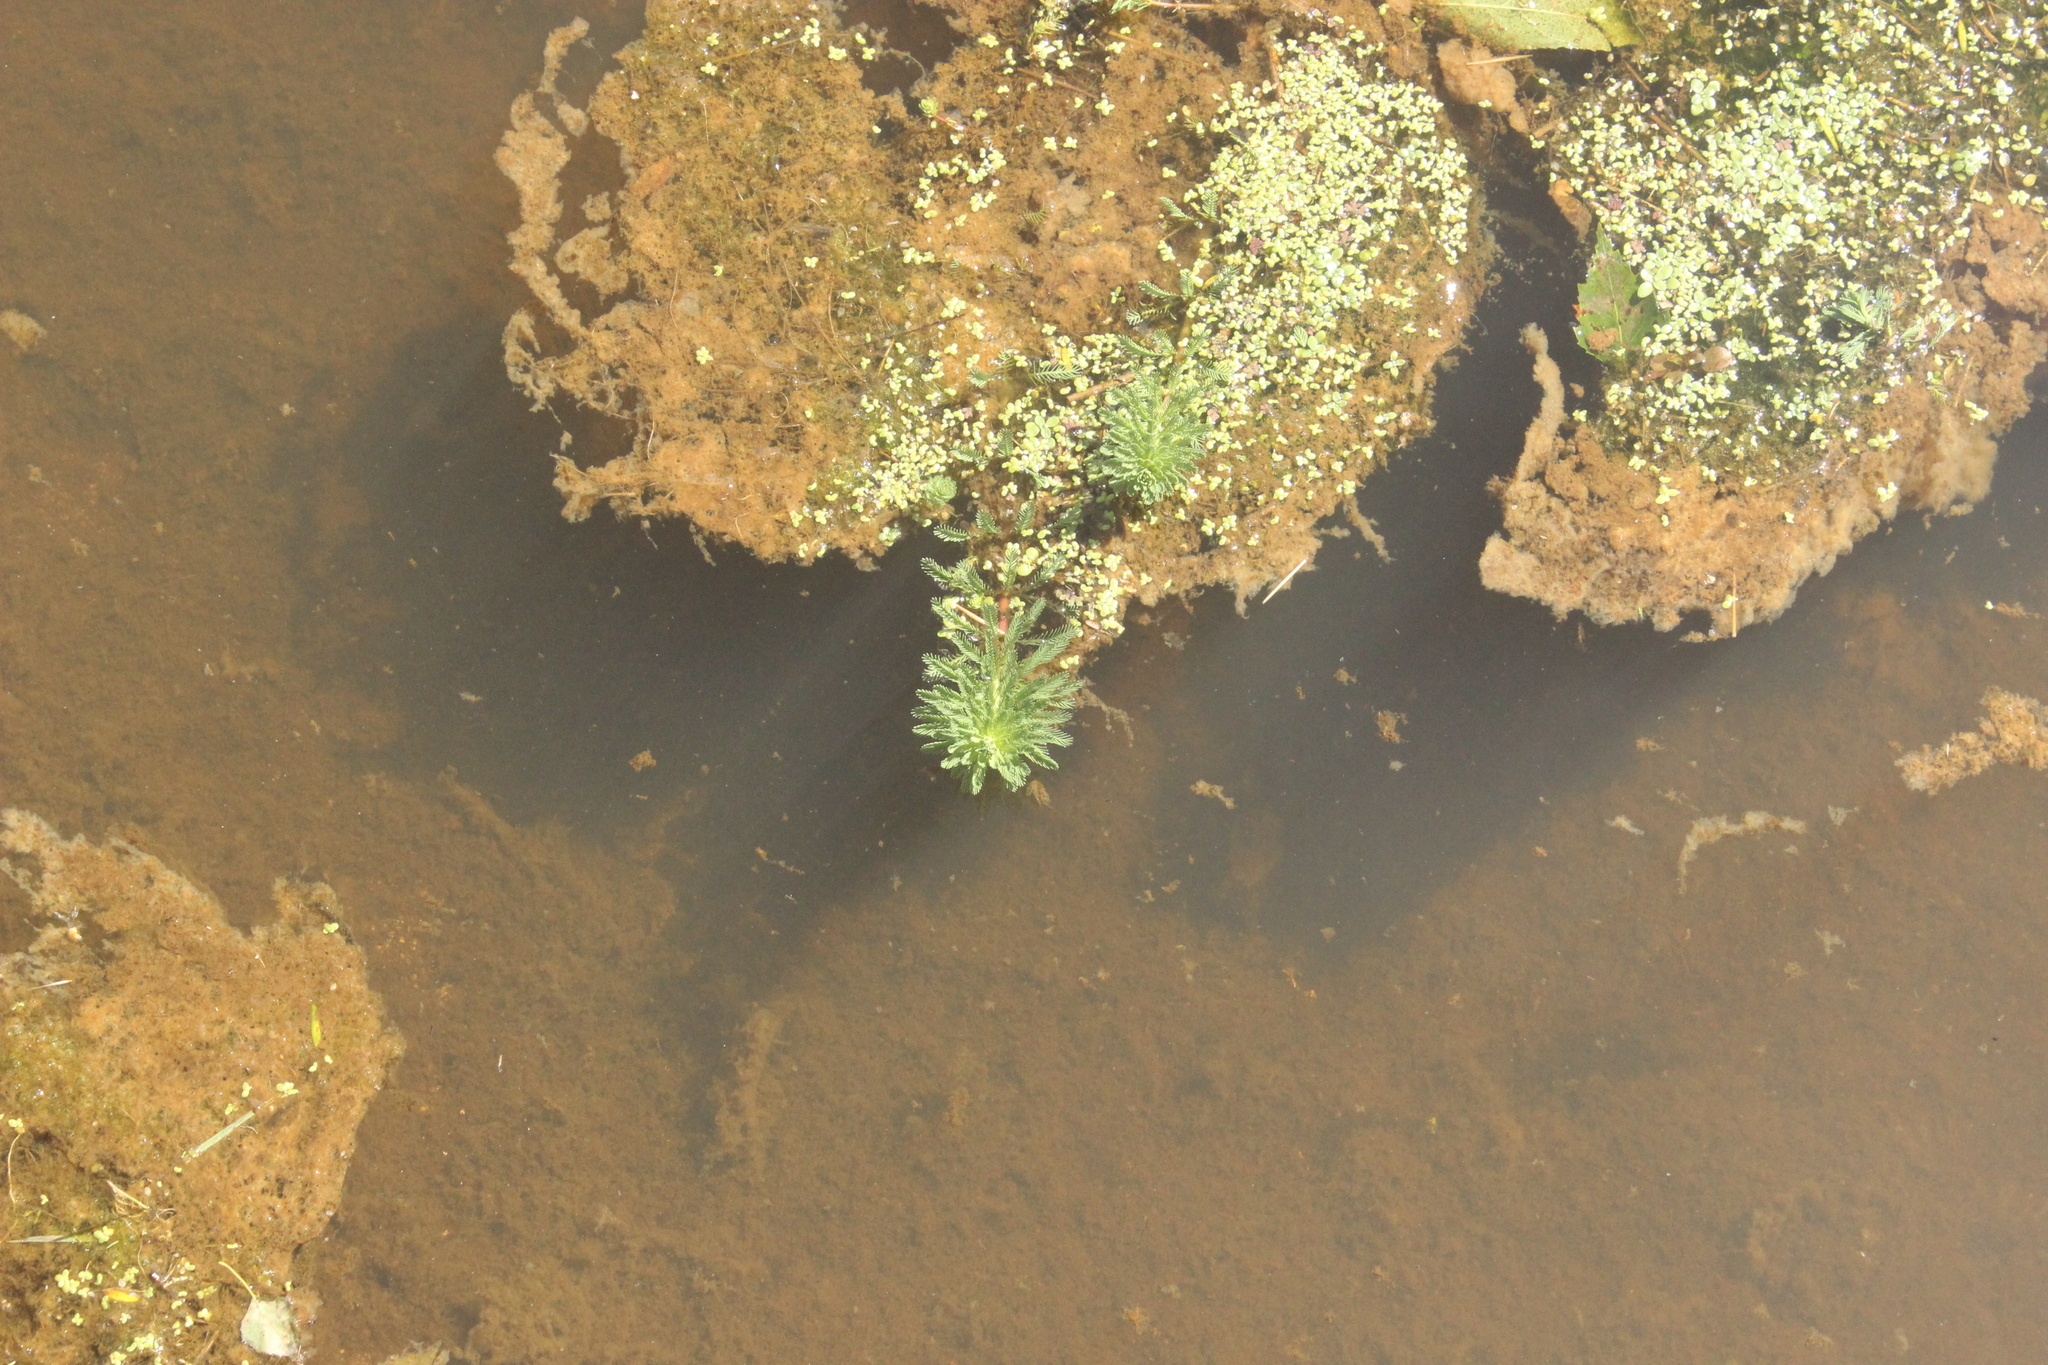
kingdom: Plantae
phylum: Tracheophyta
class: Magnoliopsida
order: Saxifragales
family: Haloragaceae
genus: Myriophyllum
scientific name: Myriophyllum aquaticum
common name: Parrot's feather
